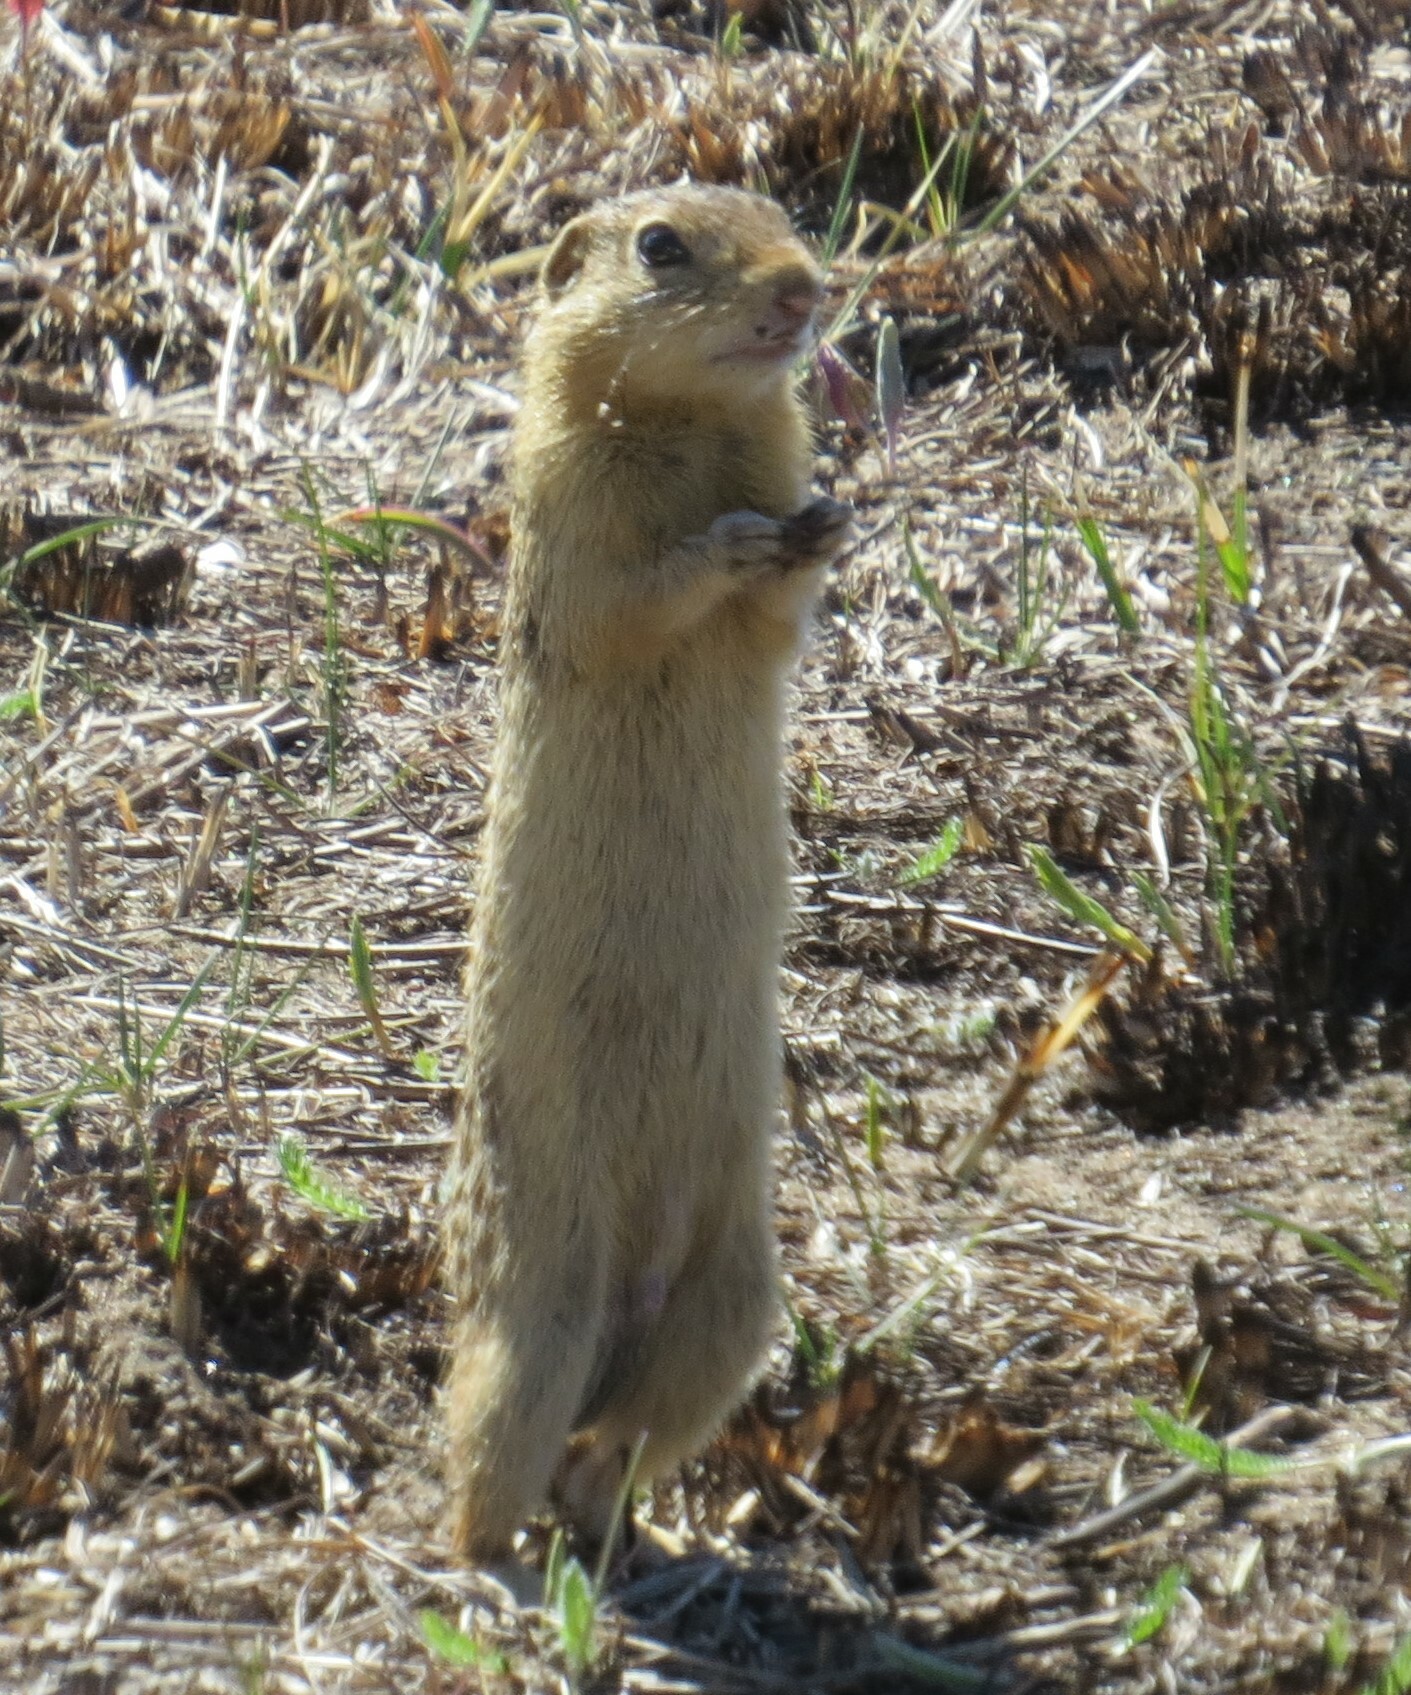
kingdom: Animalia
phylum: Chordata
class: Mammalia
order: Rodentia
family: Sciuridae
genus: Ictidomys
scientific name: Ictidomys tridecemlineatus
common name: Thirteen-lined ground squirrel
